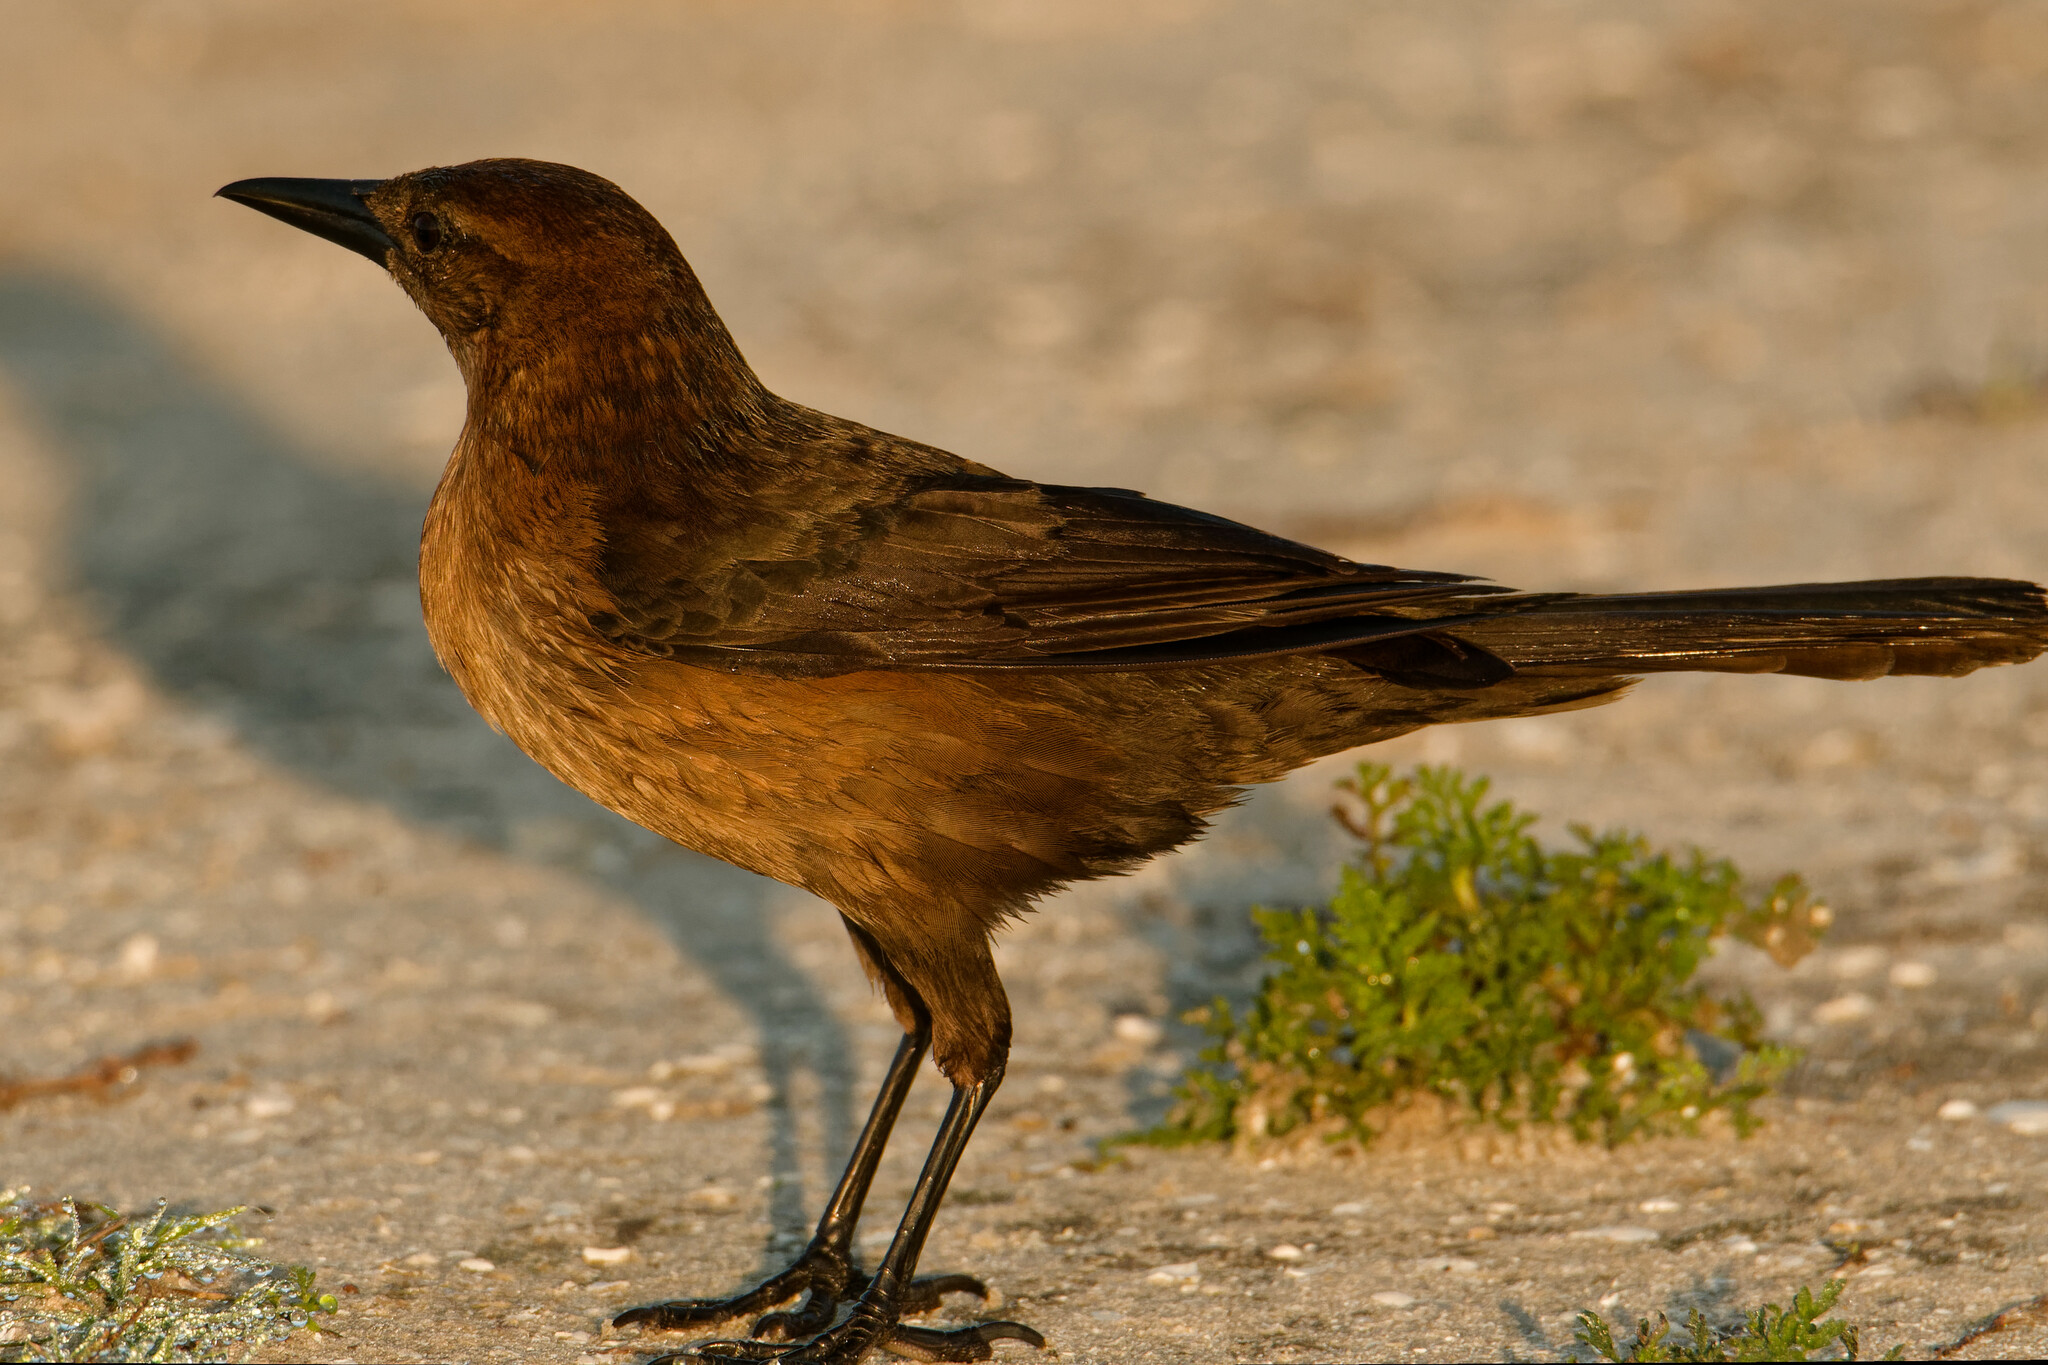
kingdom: Animalia
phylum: Chordata
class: Aves
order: Passeriformes
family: Icteridae
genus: Quiscalus
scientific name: Quiscalus major
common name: Boat-tailed grackle
